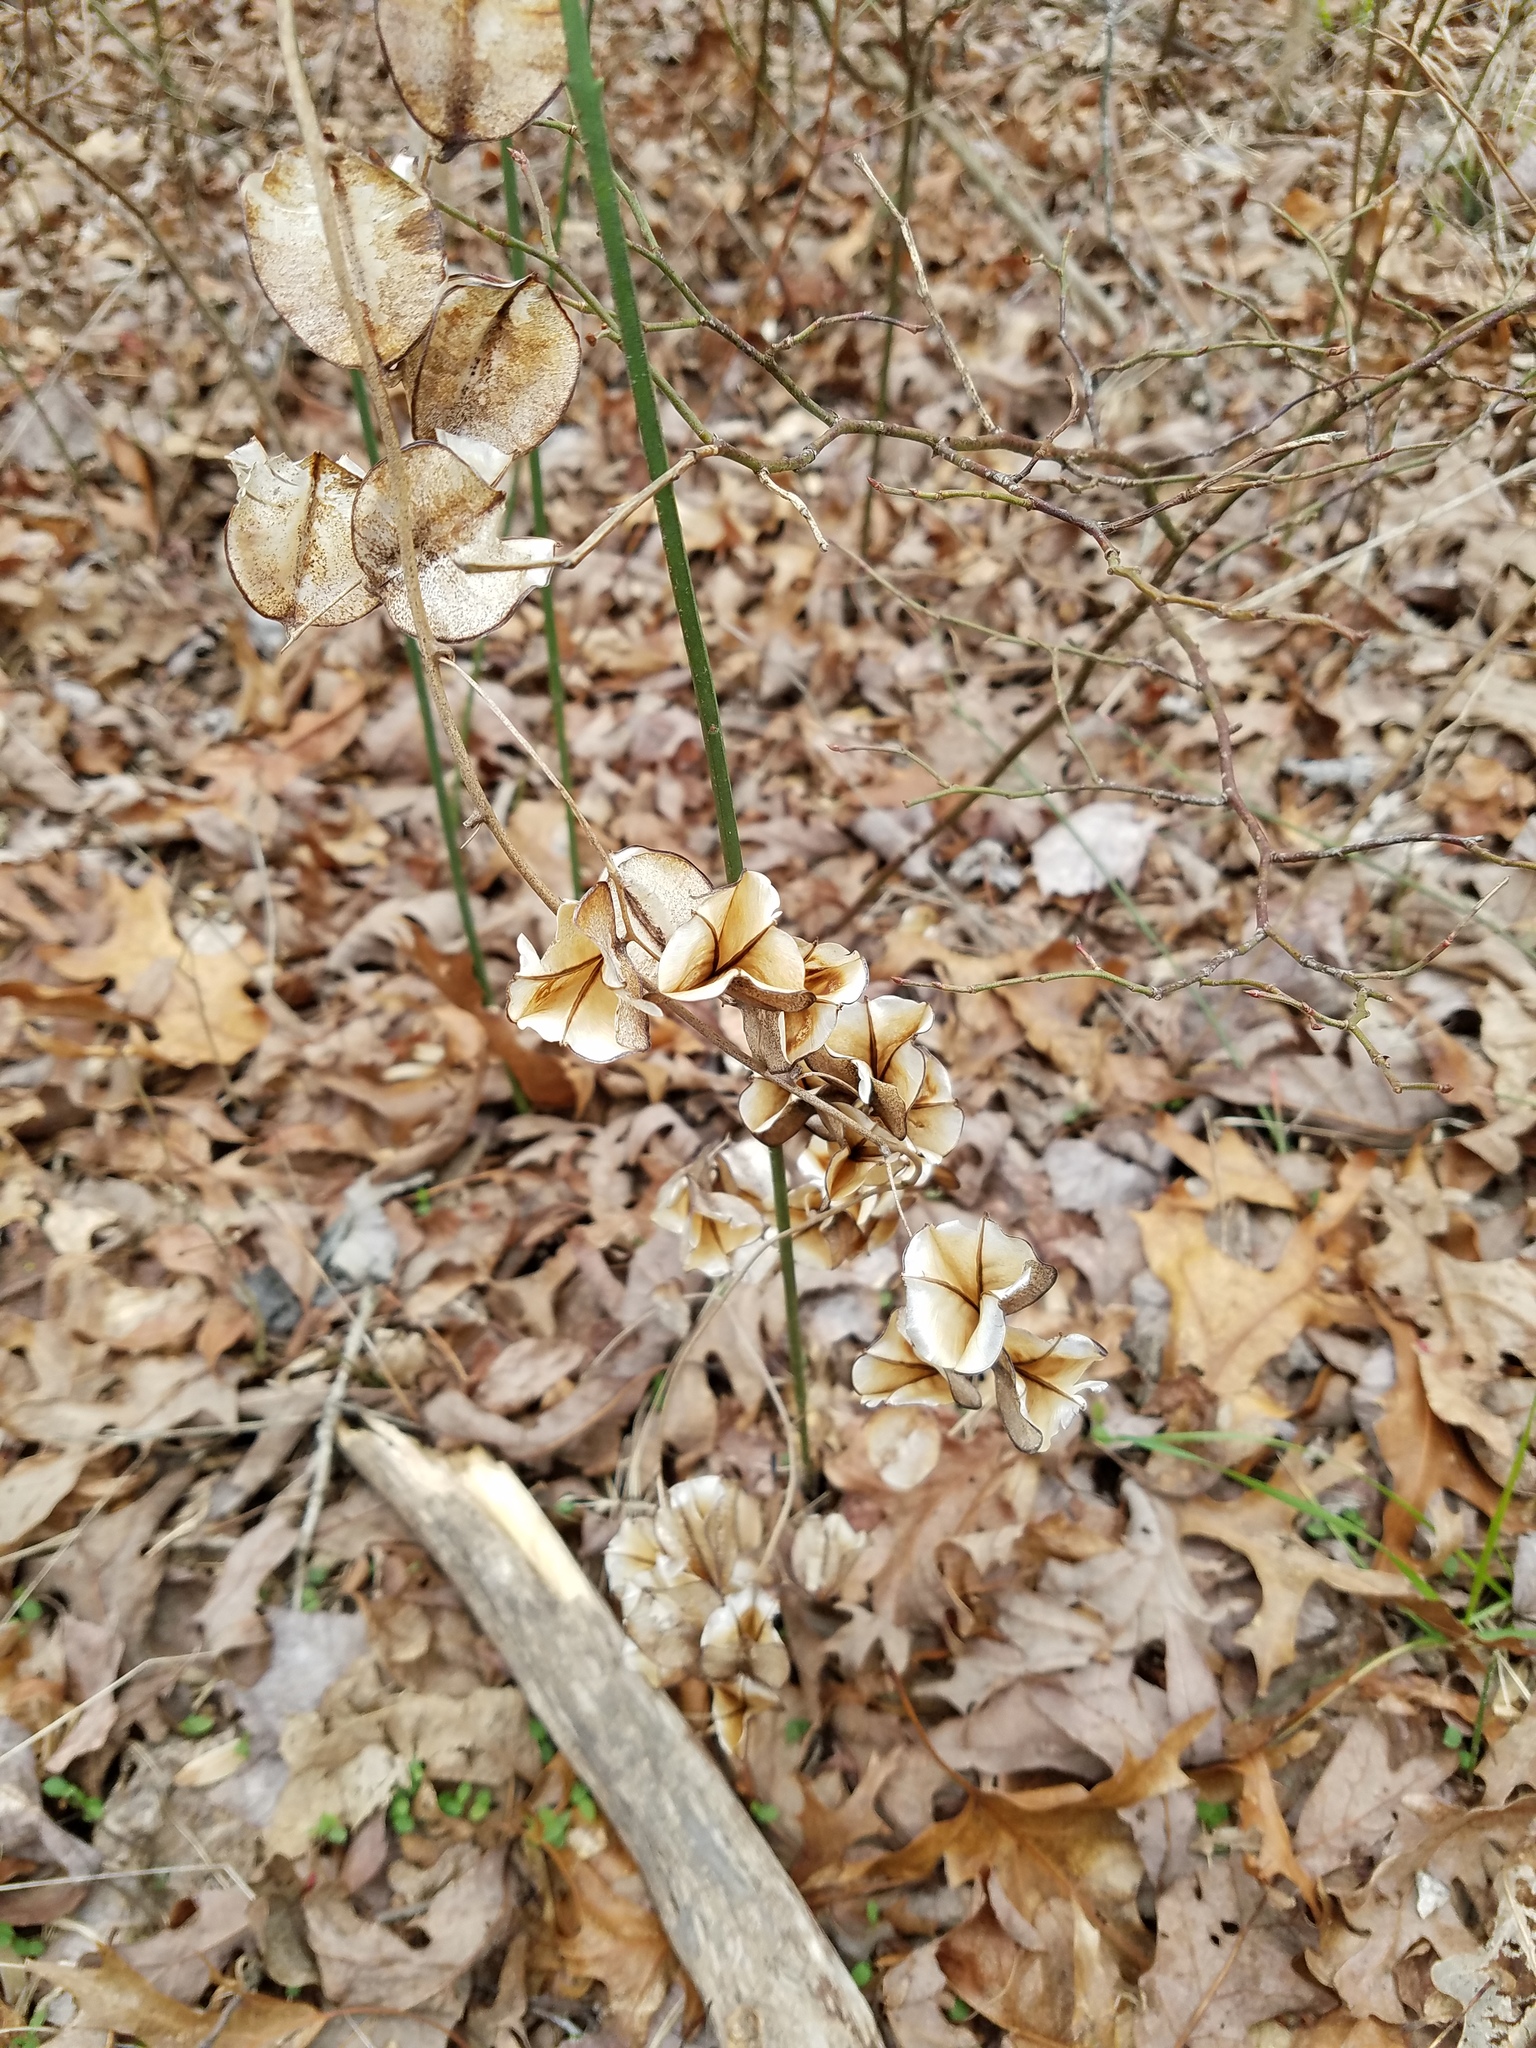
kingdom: Plantae
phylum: Tracheophyta
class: Liliopsida
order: Dioscoreales
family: Dioscoreaceae
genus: Dioscorea
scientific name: Dioscorea villosa
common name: Wild yam
